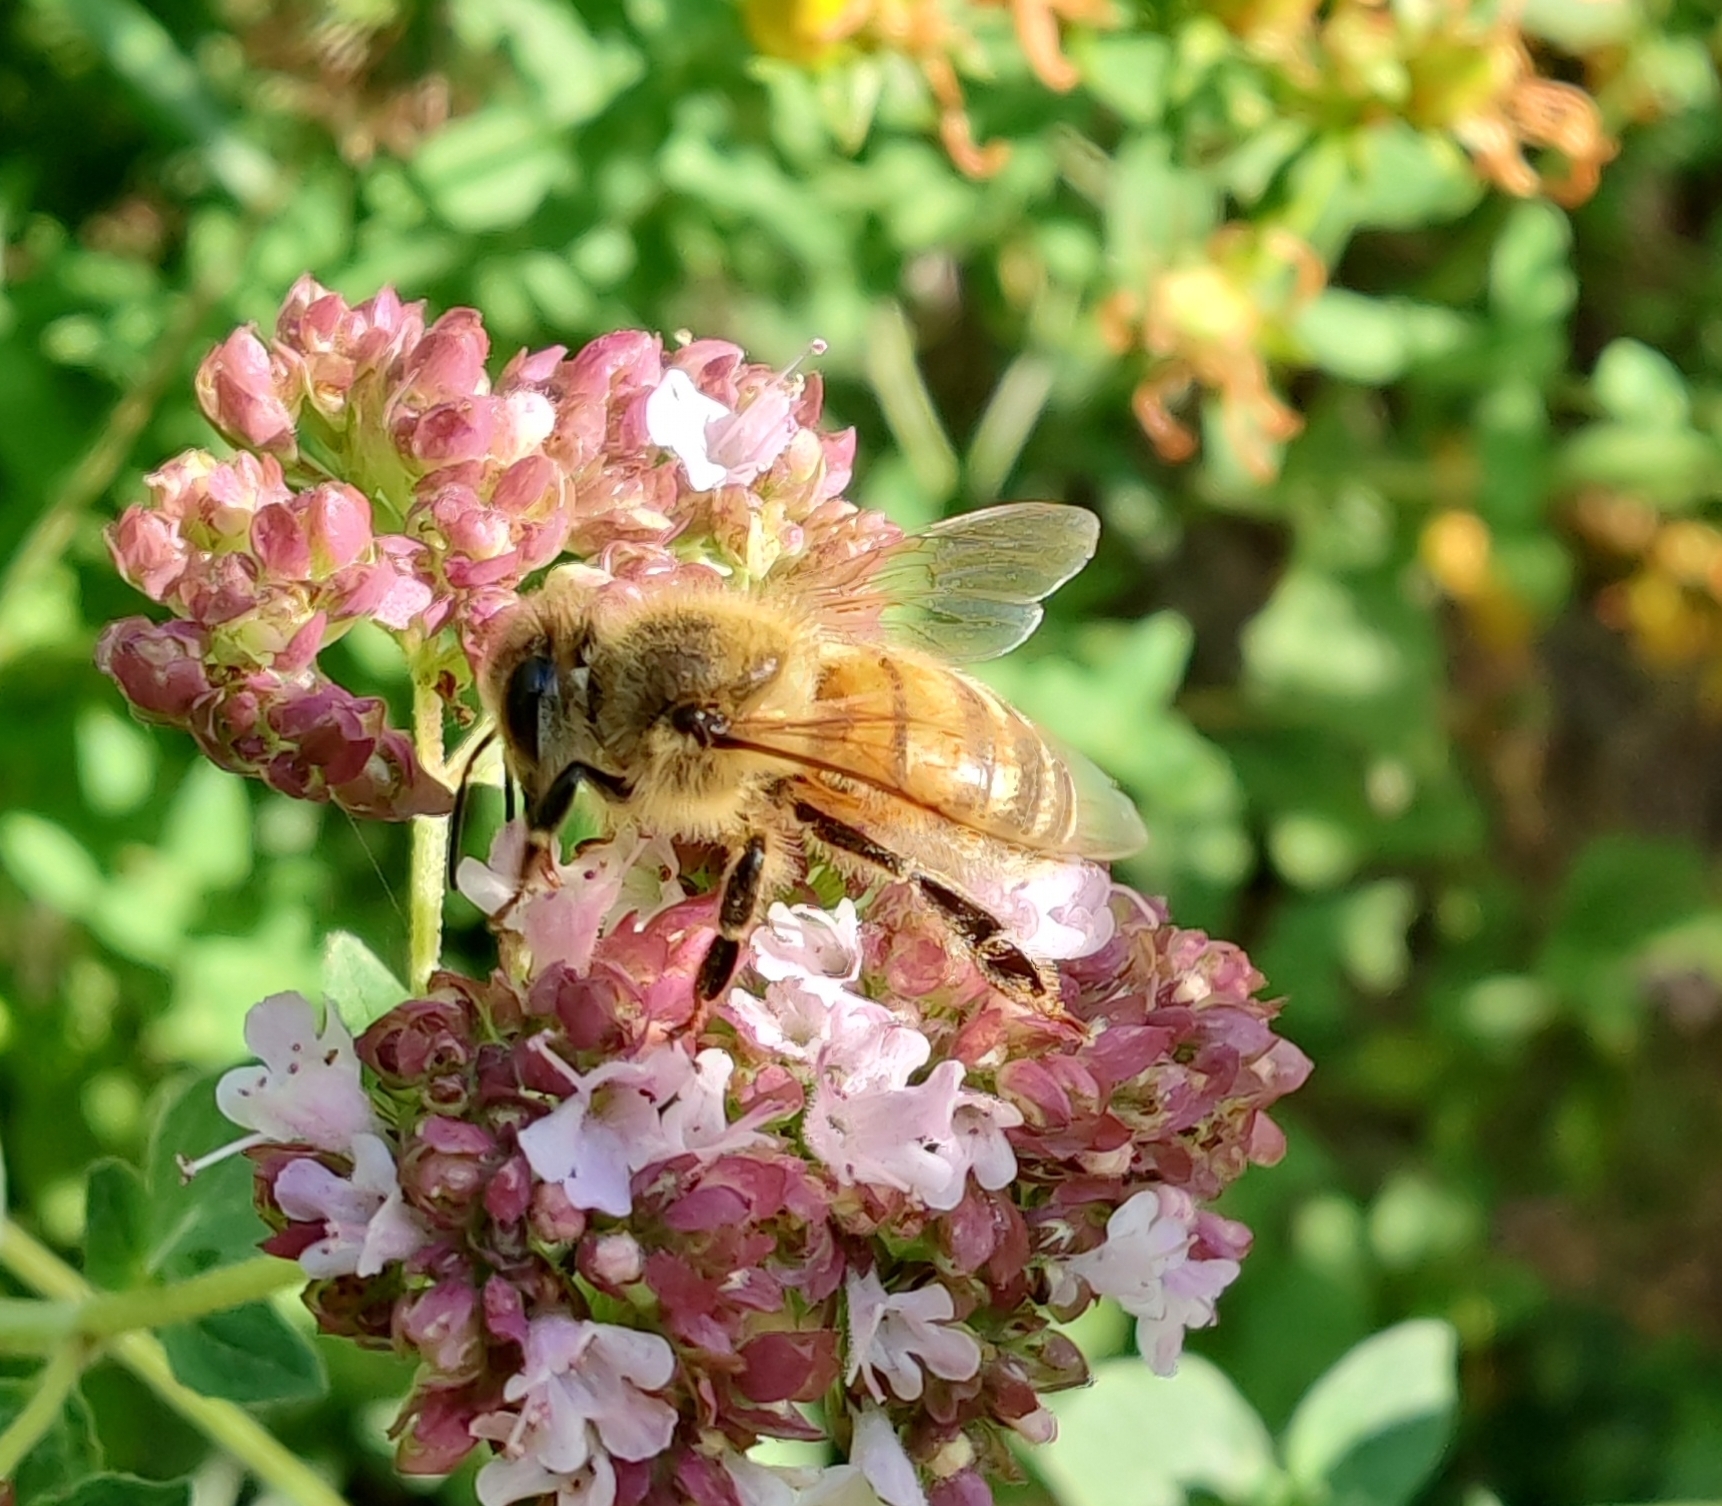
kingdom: Animalia
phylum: Arthropoda
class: Insecta
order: Hymenoptera
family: Apidae
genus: Apis
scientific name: Apis mellifera
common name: Honey bee
